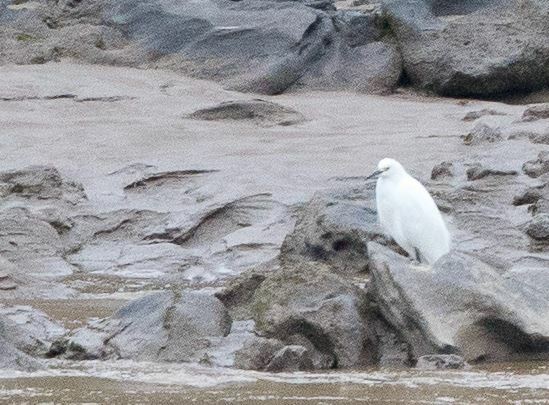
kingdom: Animalia
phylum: Chordata
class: Aves
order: Pelecaniformes
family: Ardeidae
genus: Egretta
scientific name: Egretta thula
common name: Snowy egret
